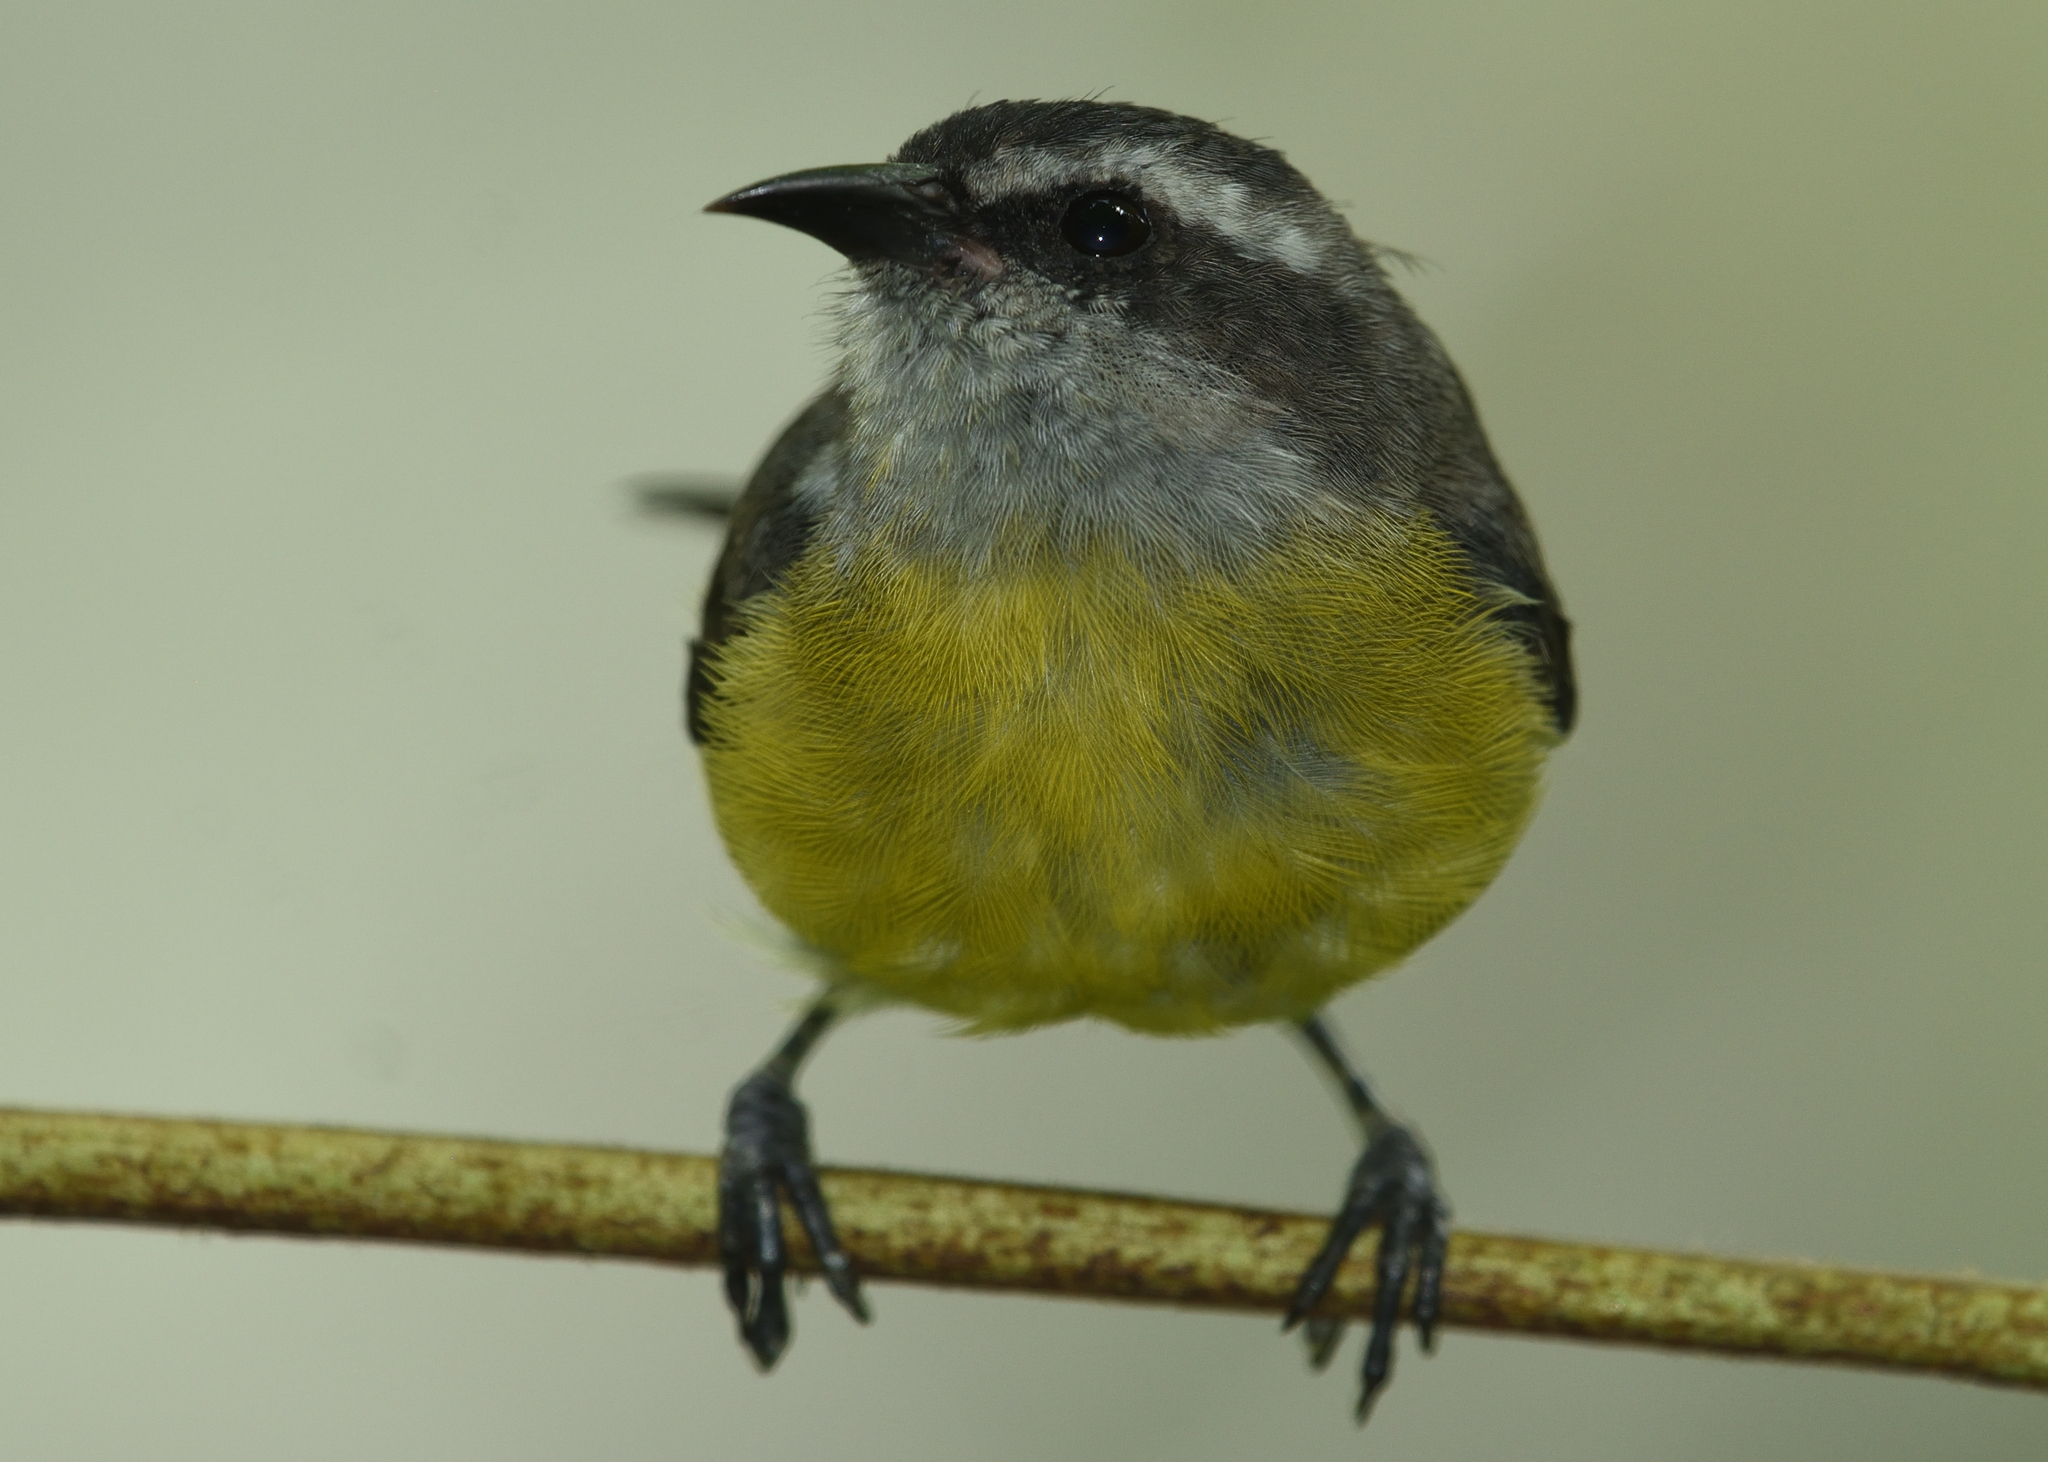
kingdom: Animalia
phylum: Chordata
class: Aves
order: Passeriformes
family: Thraupidae
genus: Coereba
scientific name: Coereba flaveola
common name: Bananaquit
